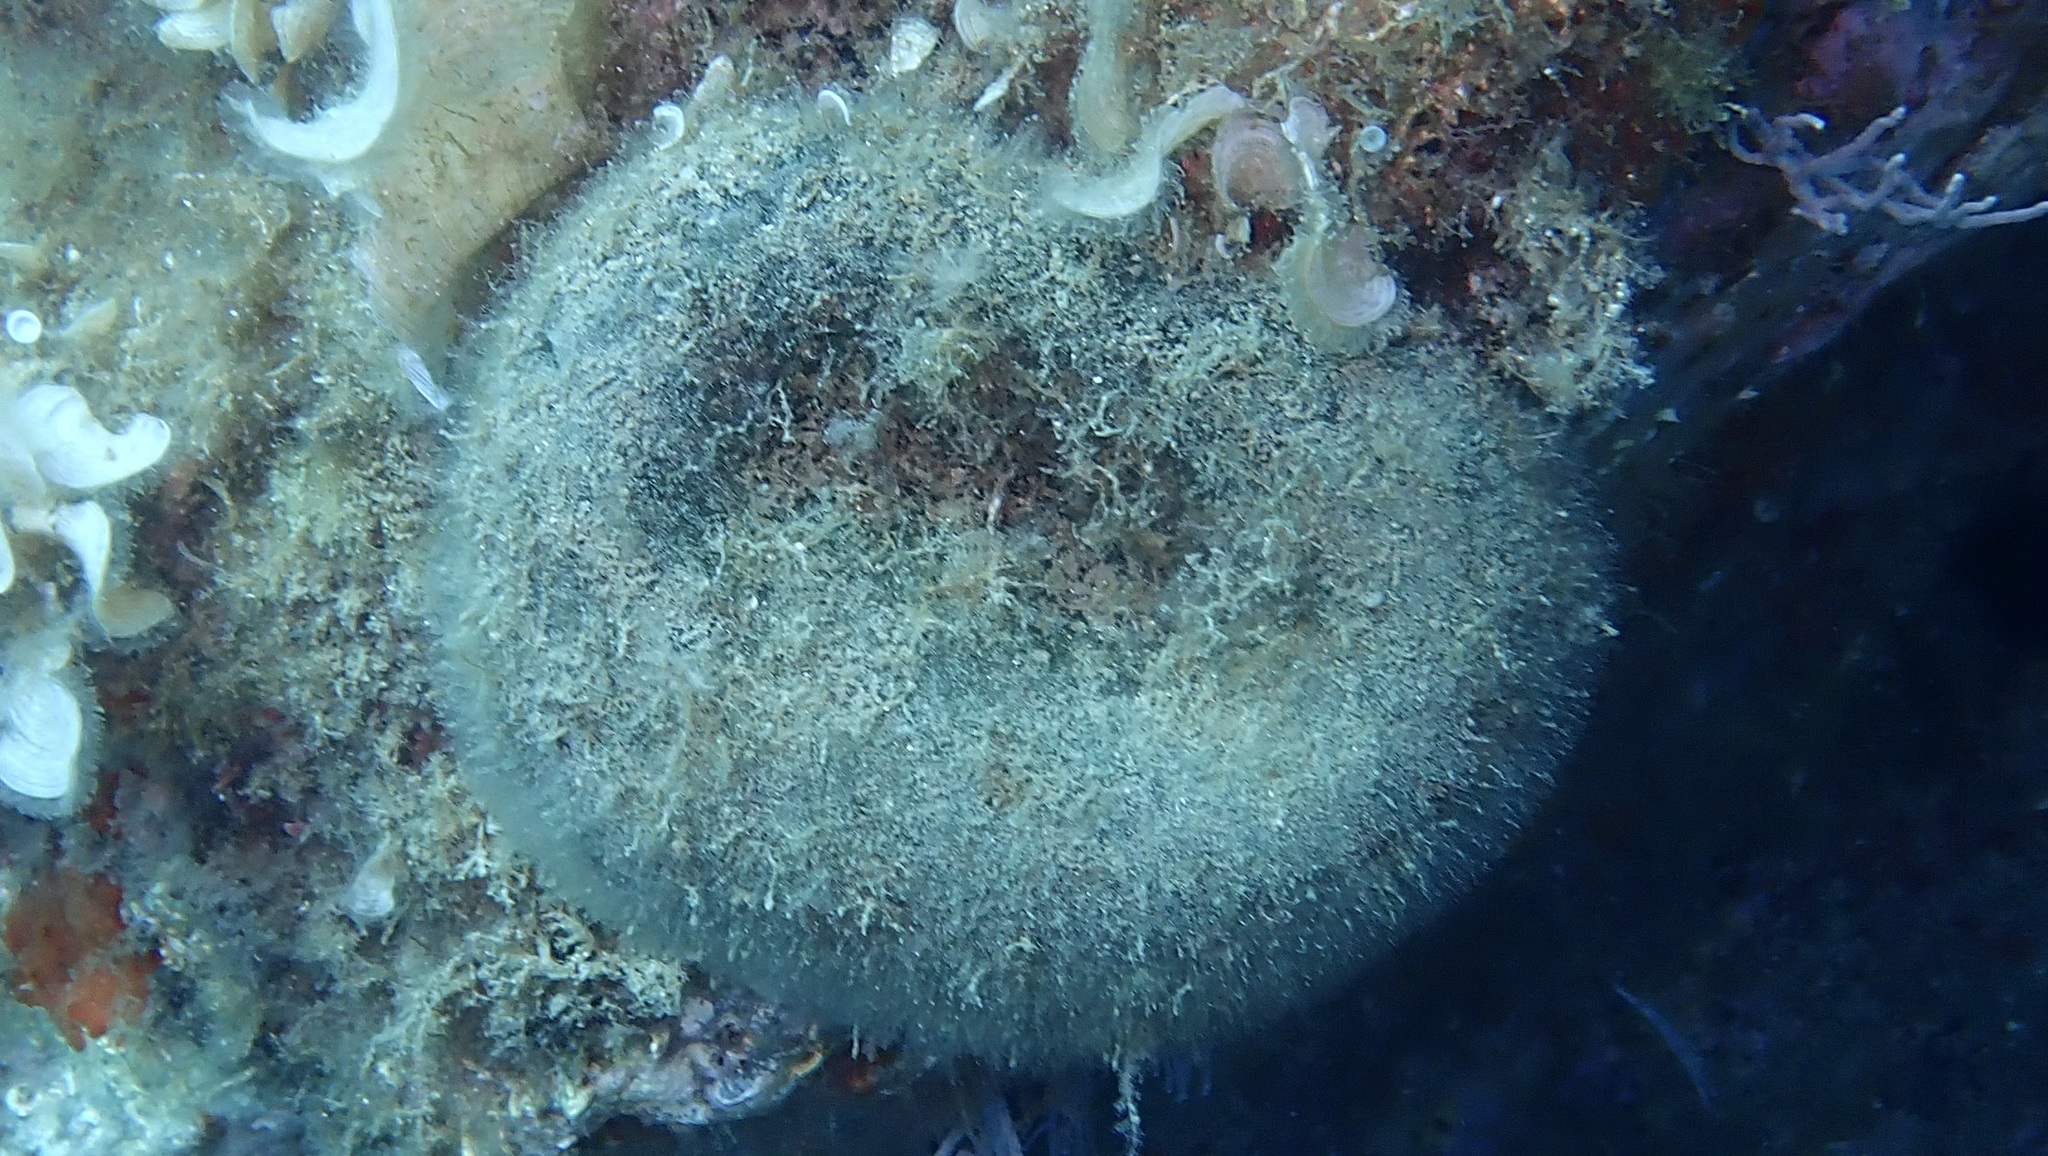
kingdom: Plantae
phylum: Chlorophyta
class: Ulvophyceae
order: Bryopsidales
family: Codiaceae
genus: Codium
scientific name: Codium bursa
